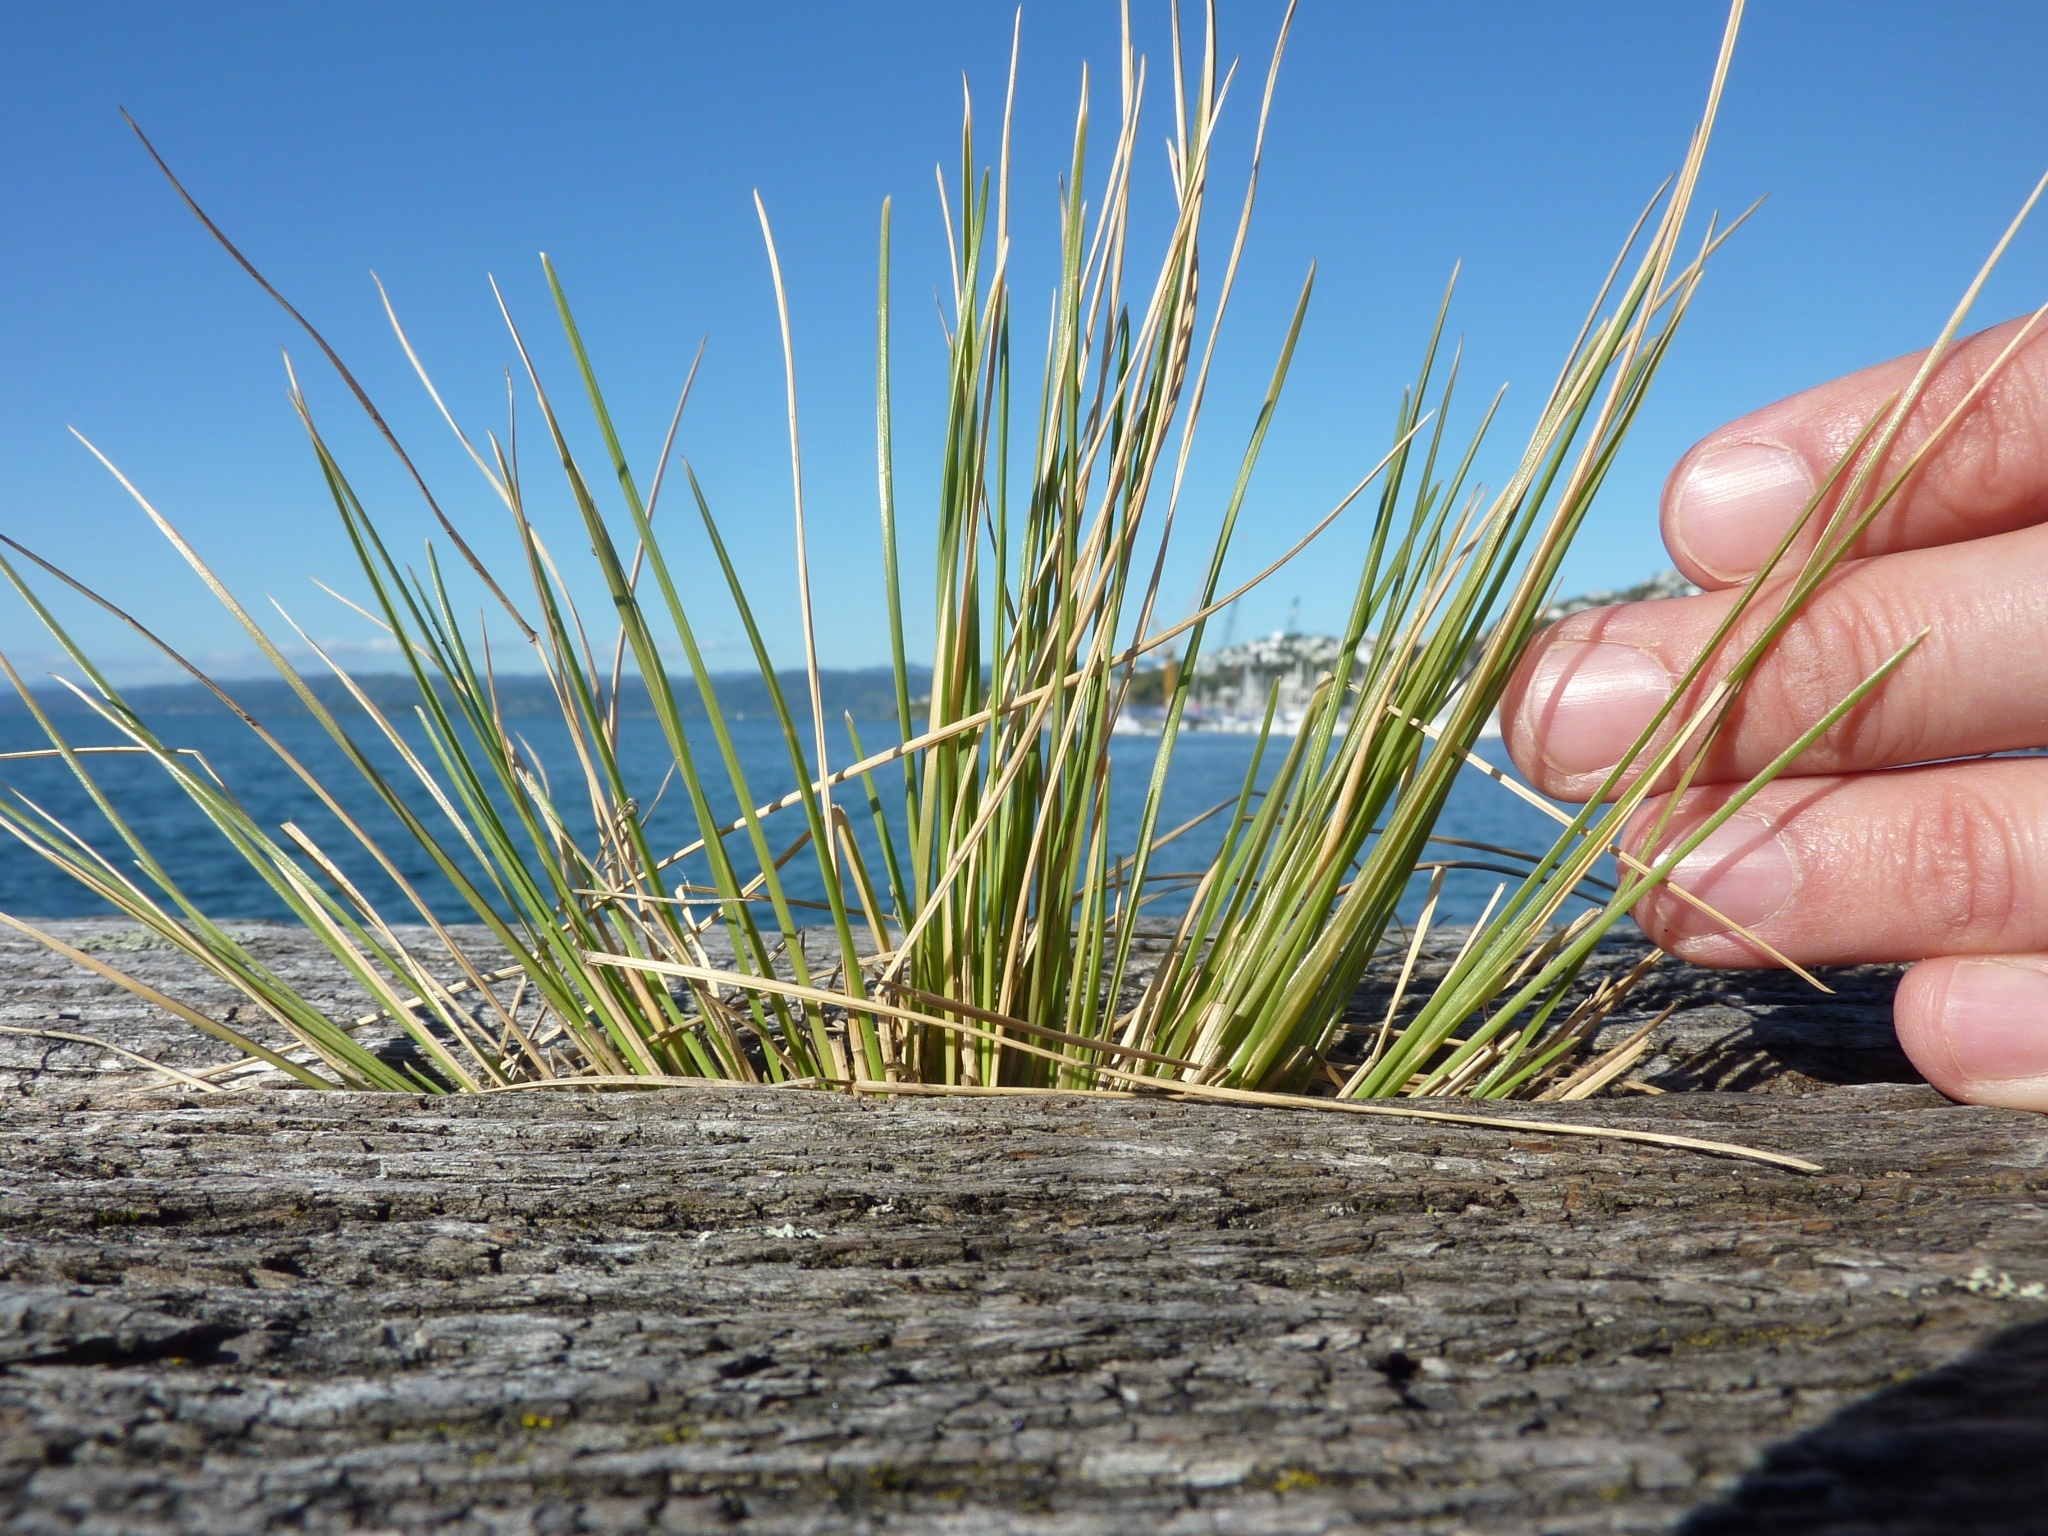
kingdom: Plantae
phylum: Tracheophyta
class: Liliopsida
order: Poales
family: Poaceae
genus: Poa
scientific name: Poa cita
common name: Silver tussock
